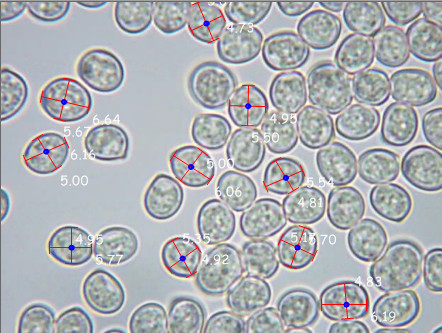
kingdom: Fungi
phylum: Basidiomycota
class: Agaricomycetes
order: Agaricales
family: Pluteaceae
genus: Pluteus
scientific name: Pluteus cervinus
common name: Deer shield
